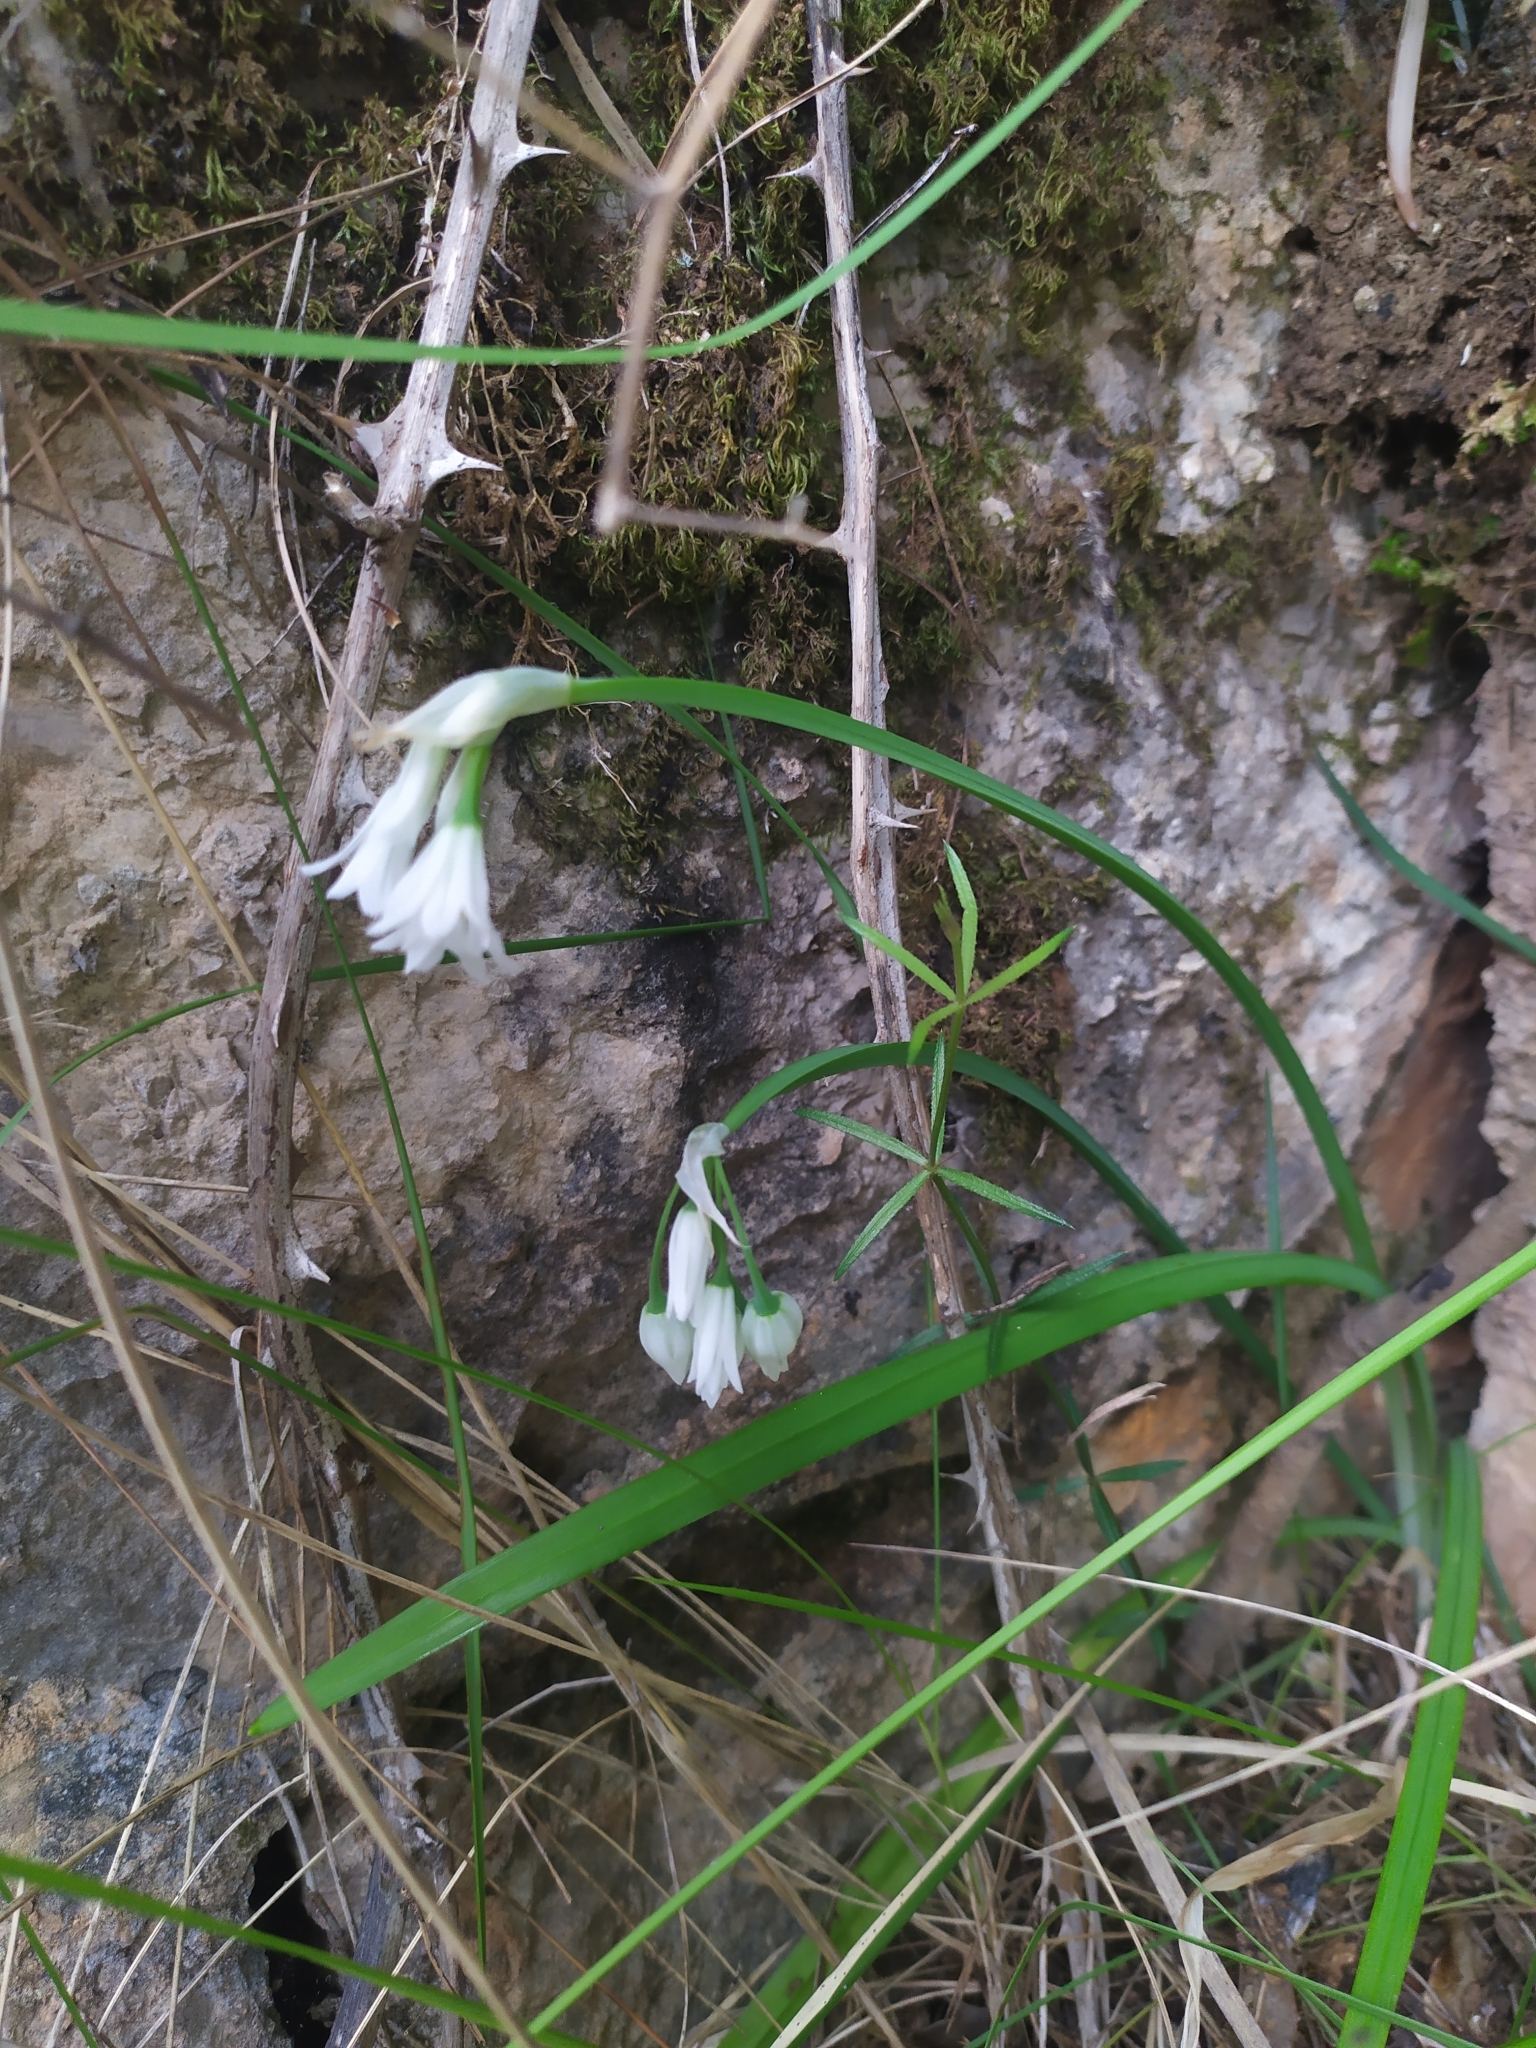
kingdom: Plantae
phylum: Tracheophyta
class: Liliopsida
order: Asparagales
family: Amaryllidaceae
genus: Allium
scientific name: Allium triquetrum
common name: Three-cornered garlic
